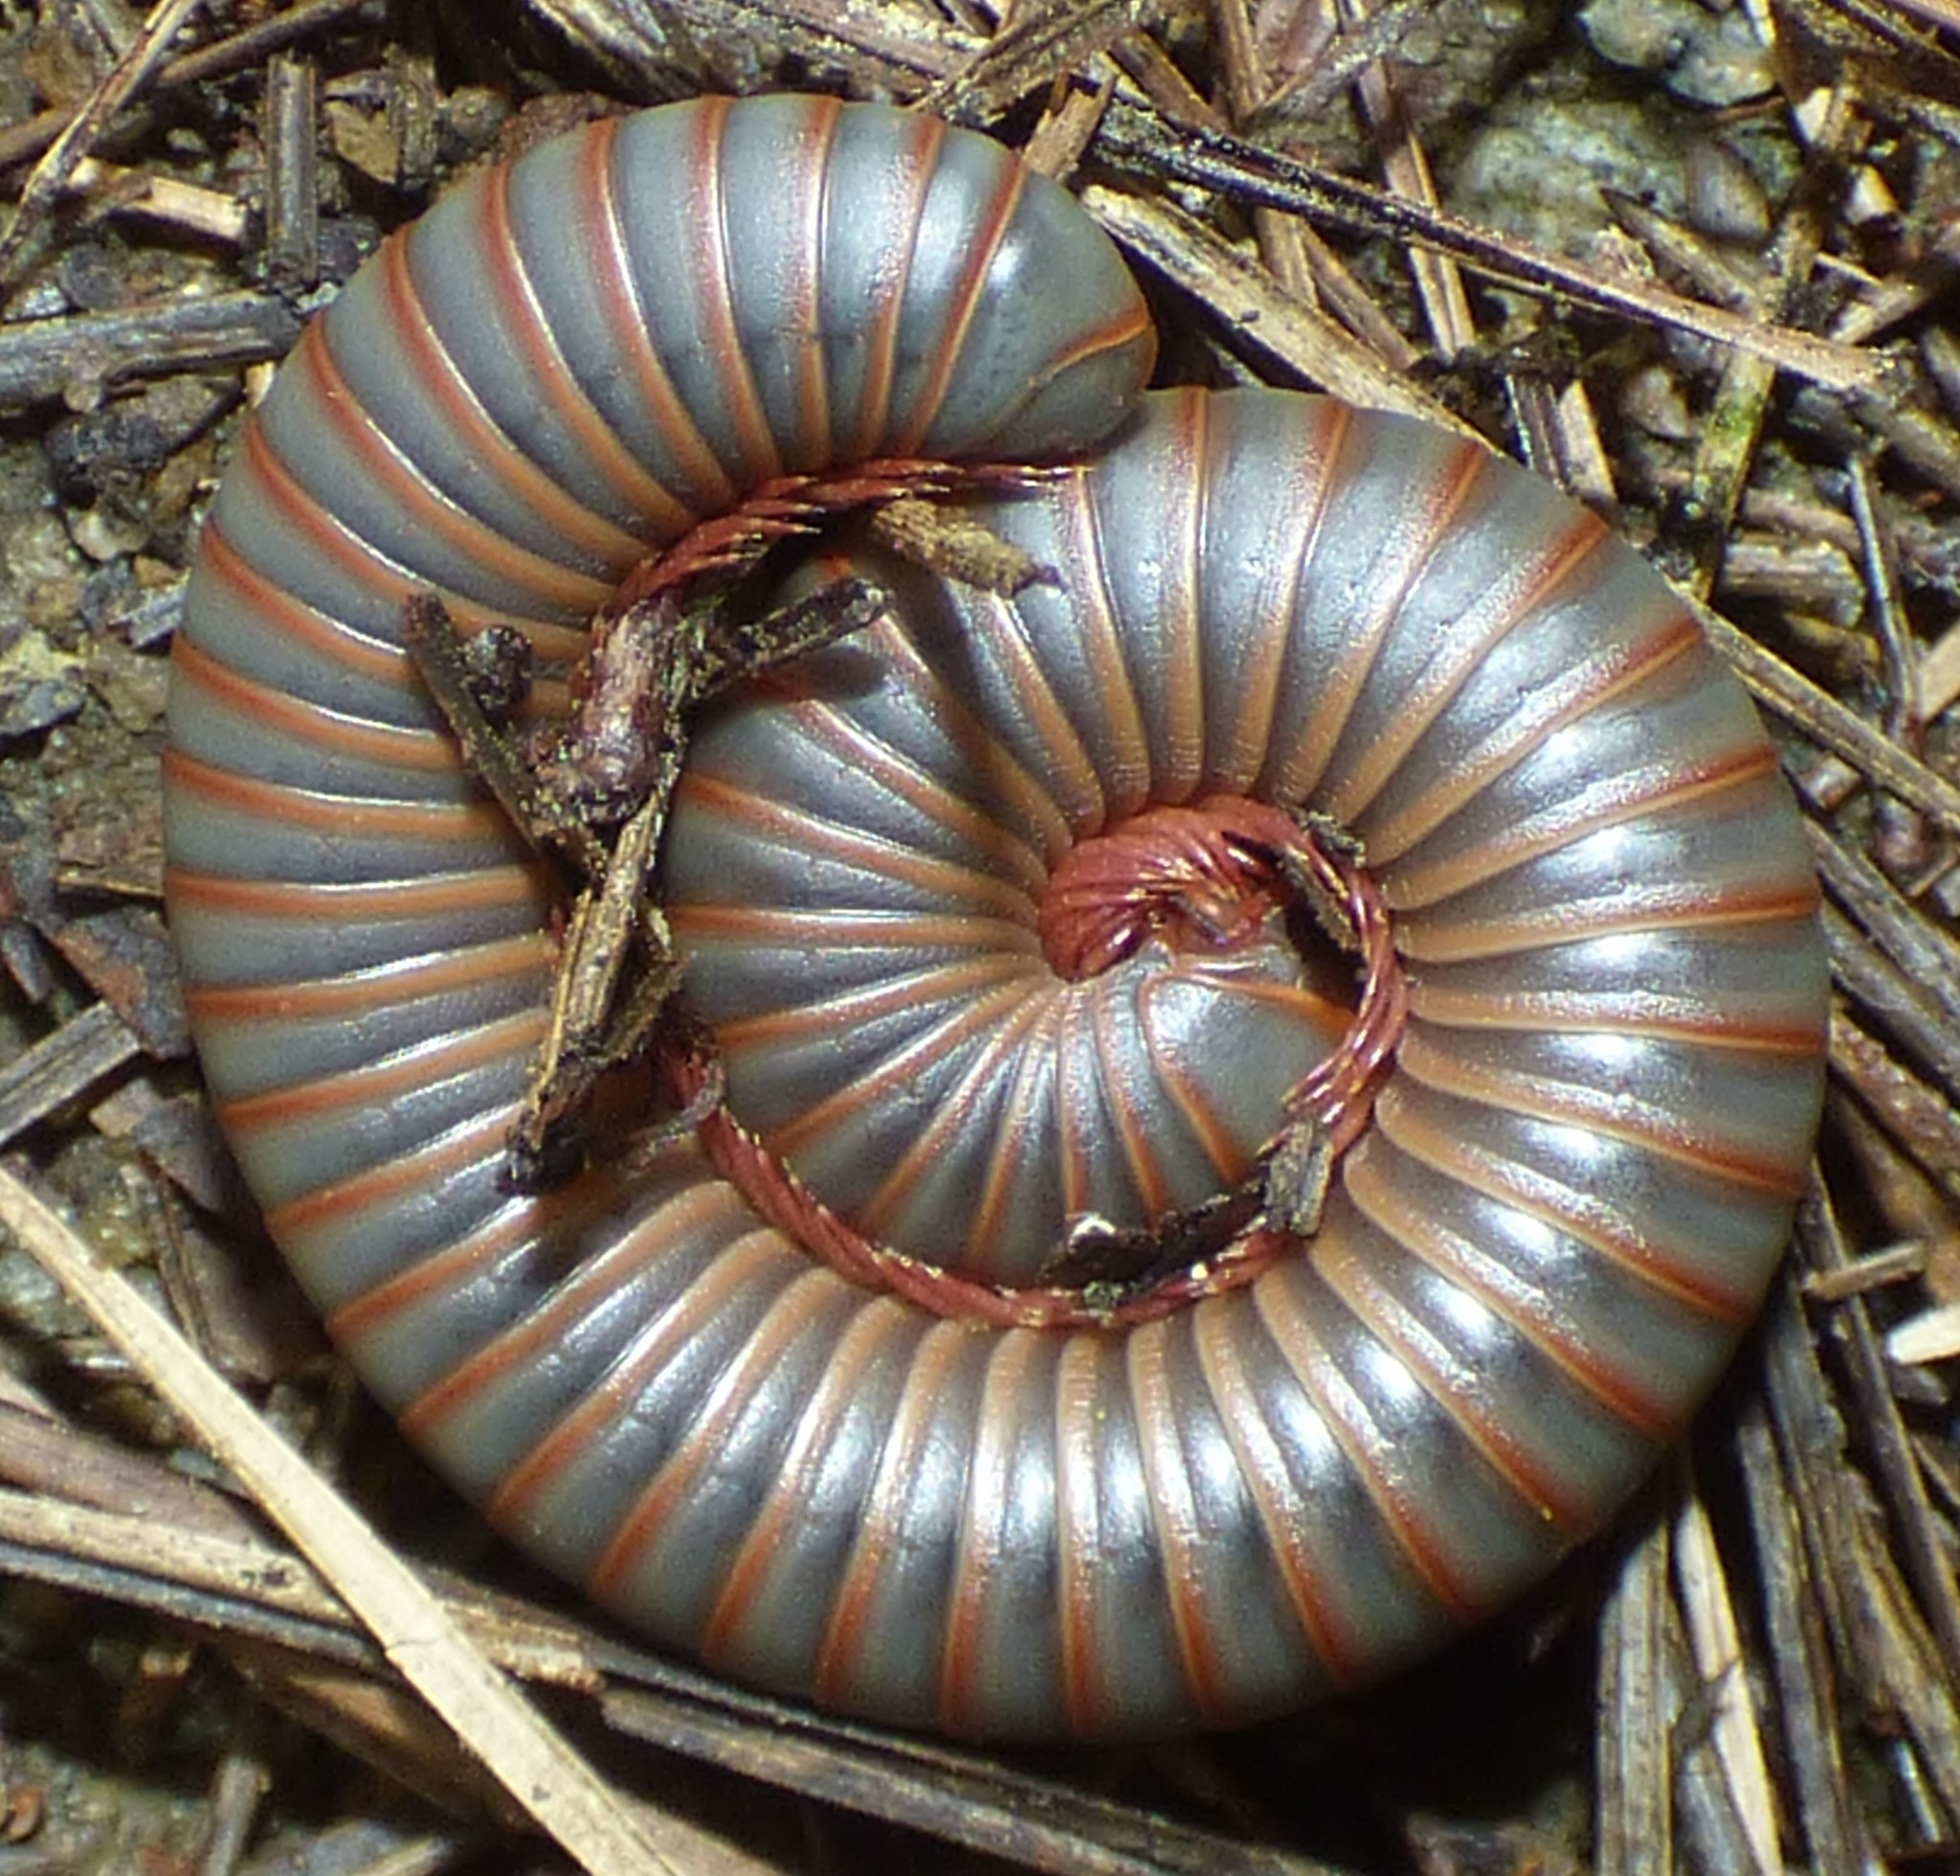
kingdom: Animalia
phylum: Arthropoda
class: Diplopoda
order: Spirobolida
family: Spirobolidae
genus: Narceus
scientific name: Narceus
